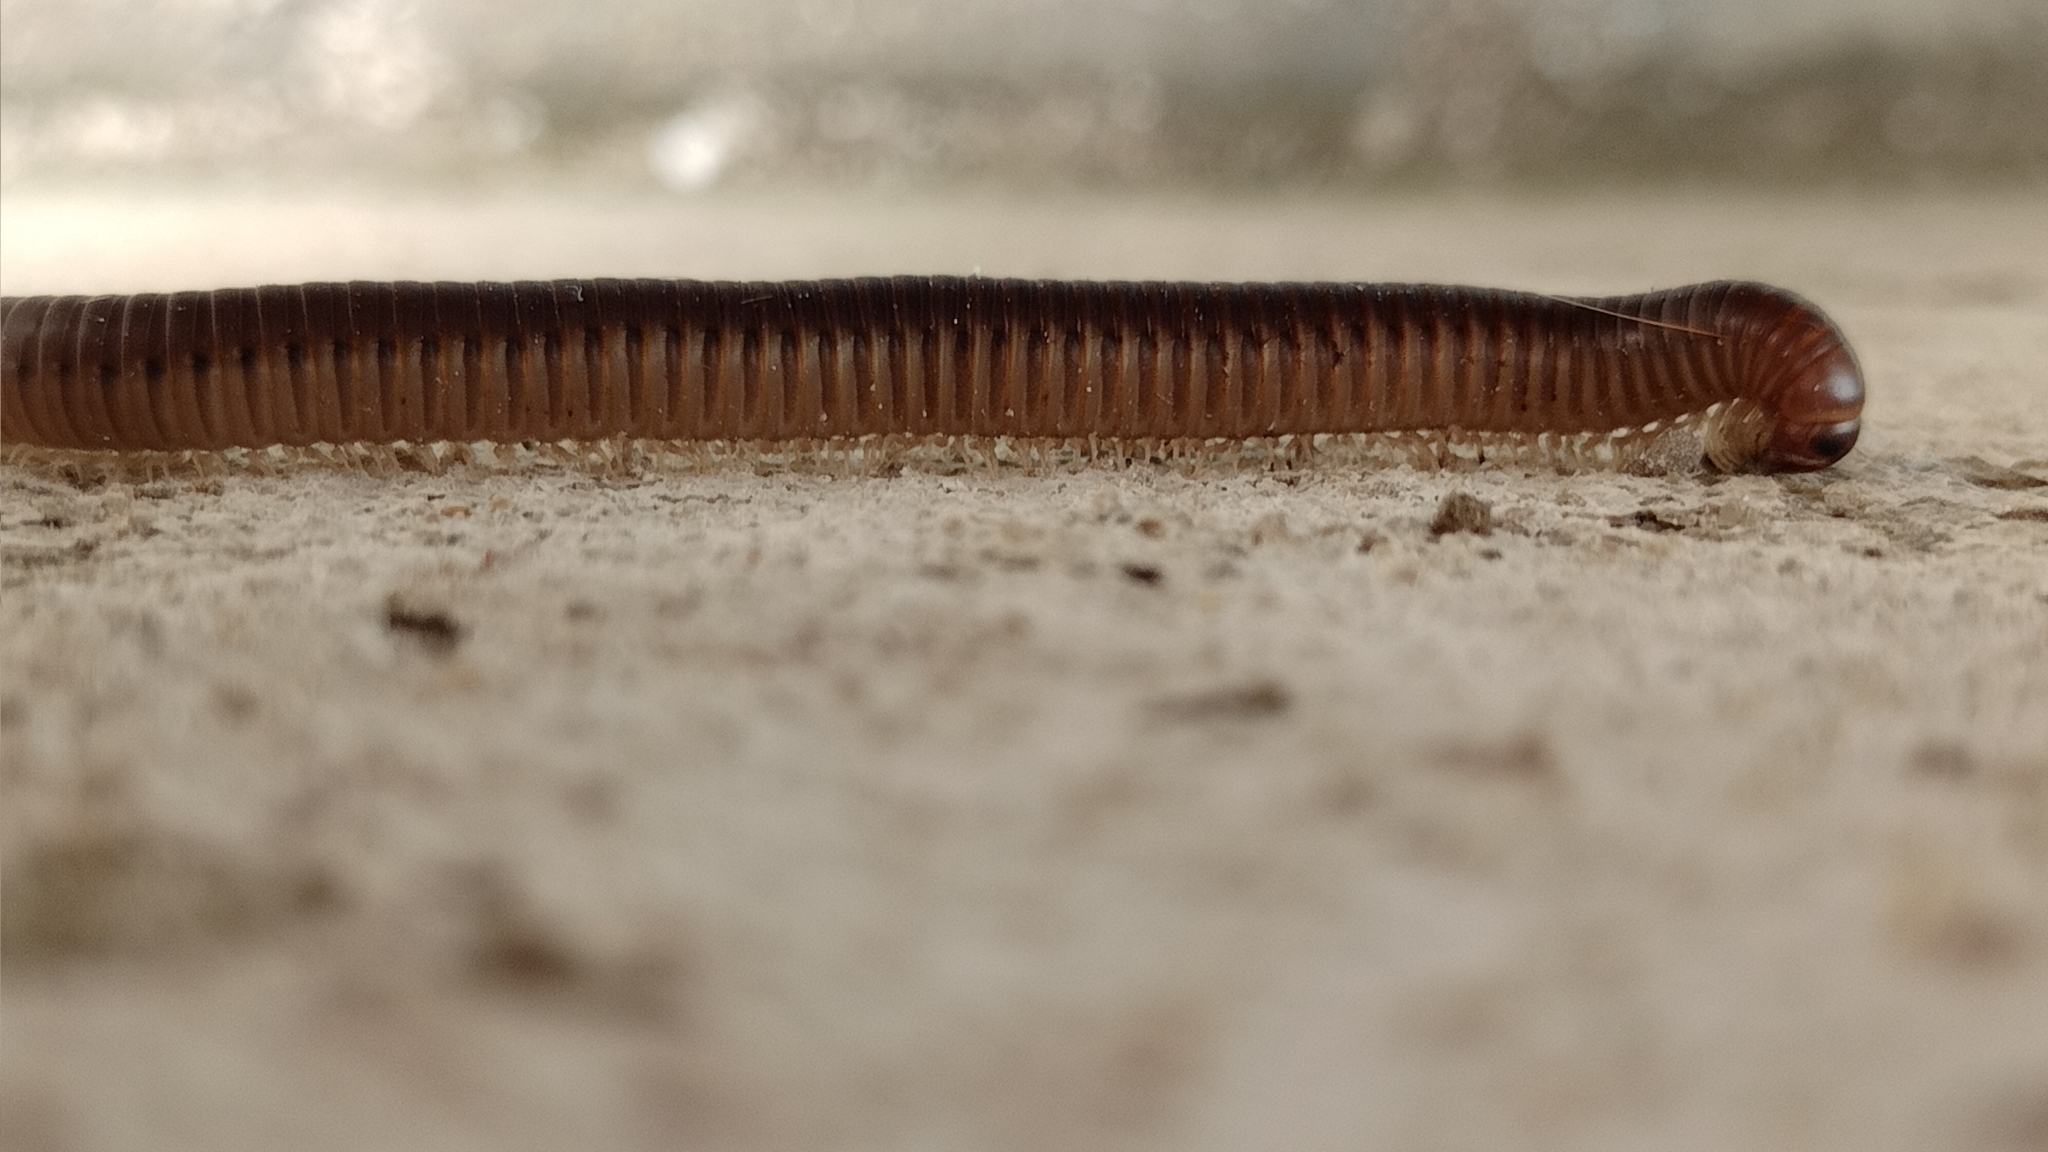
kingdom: Animalia
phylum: Arthropoda
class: Diplopoda
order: Julida
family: Julidae
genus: Pachyiulus
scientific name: Pachyiulus flavipes
